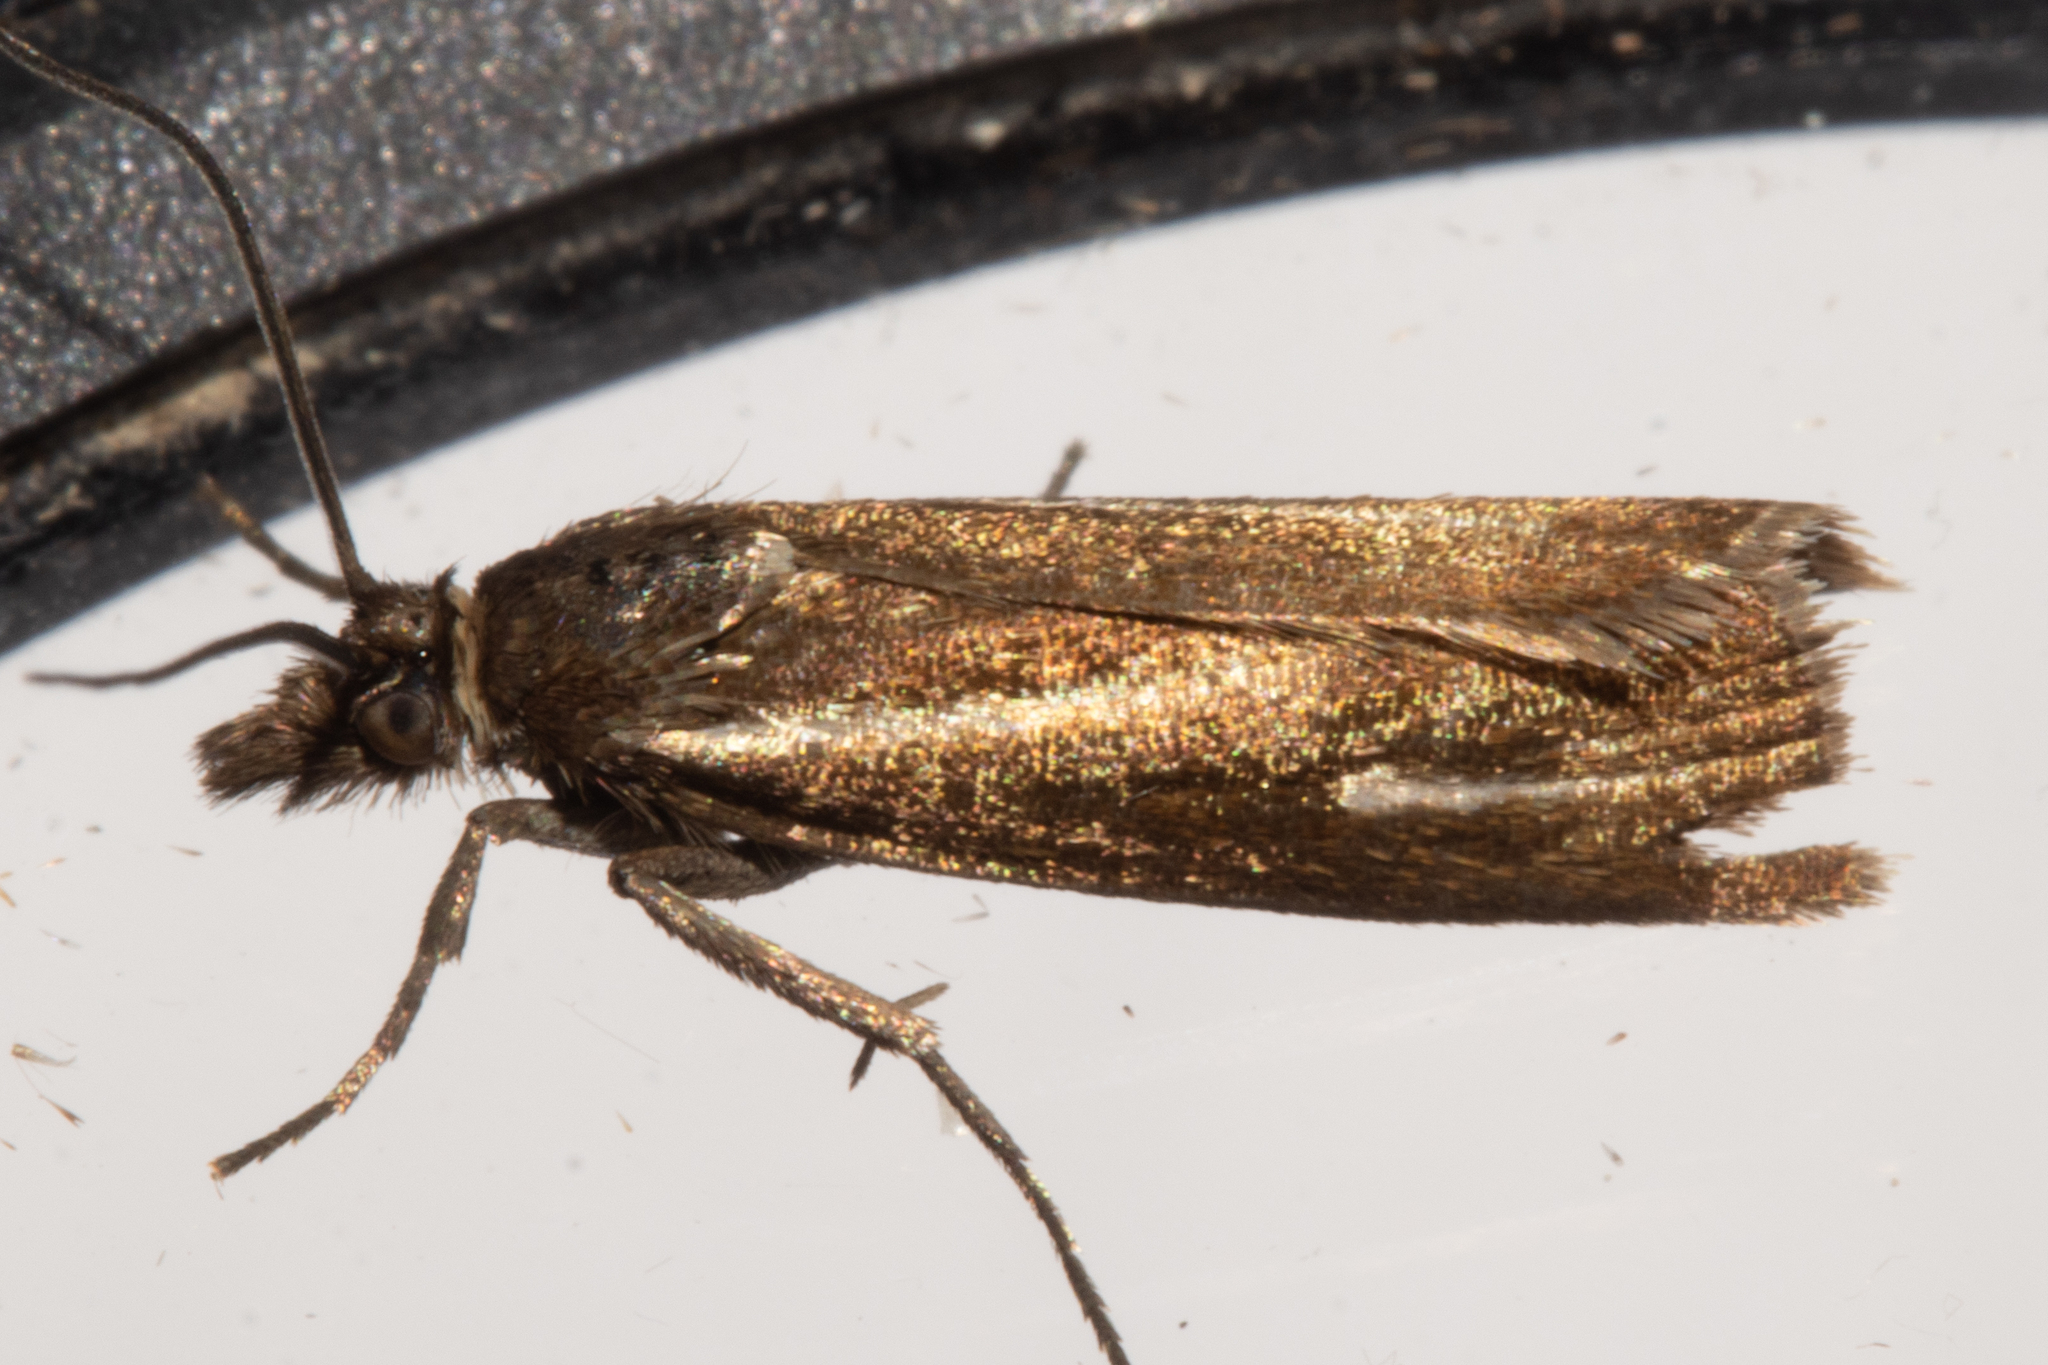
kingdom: Animalia
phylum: Arthropoda
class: Insecta
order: Lepidoptera
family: Crambidae
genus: Orocrambus
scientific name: Orocrambus heliotes
